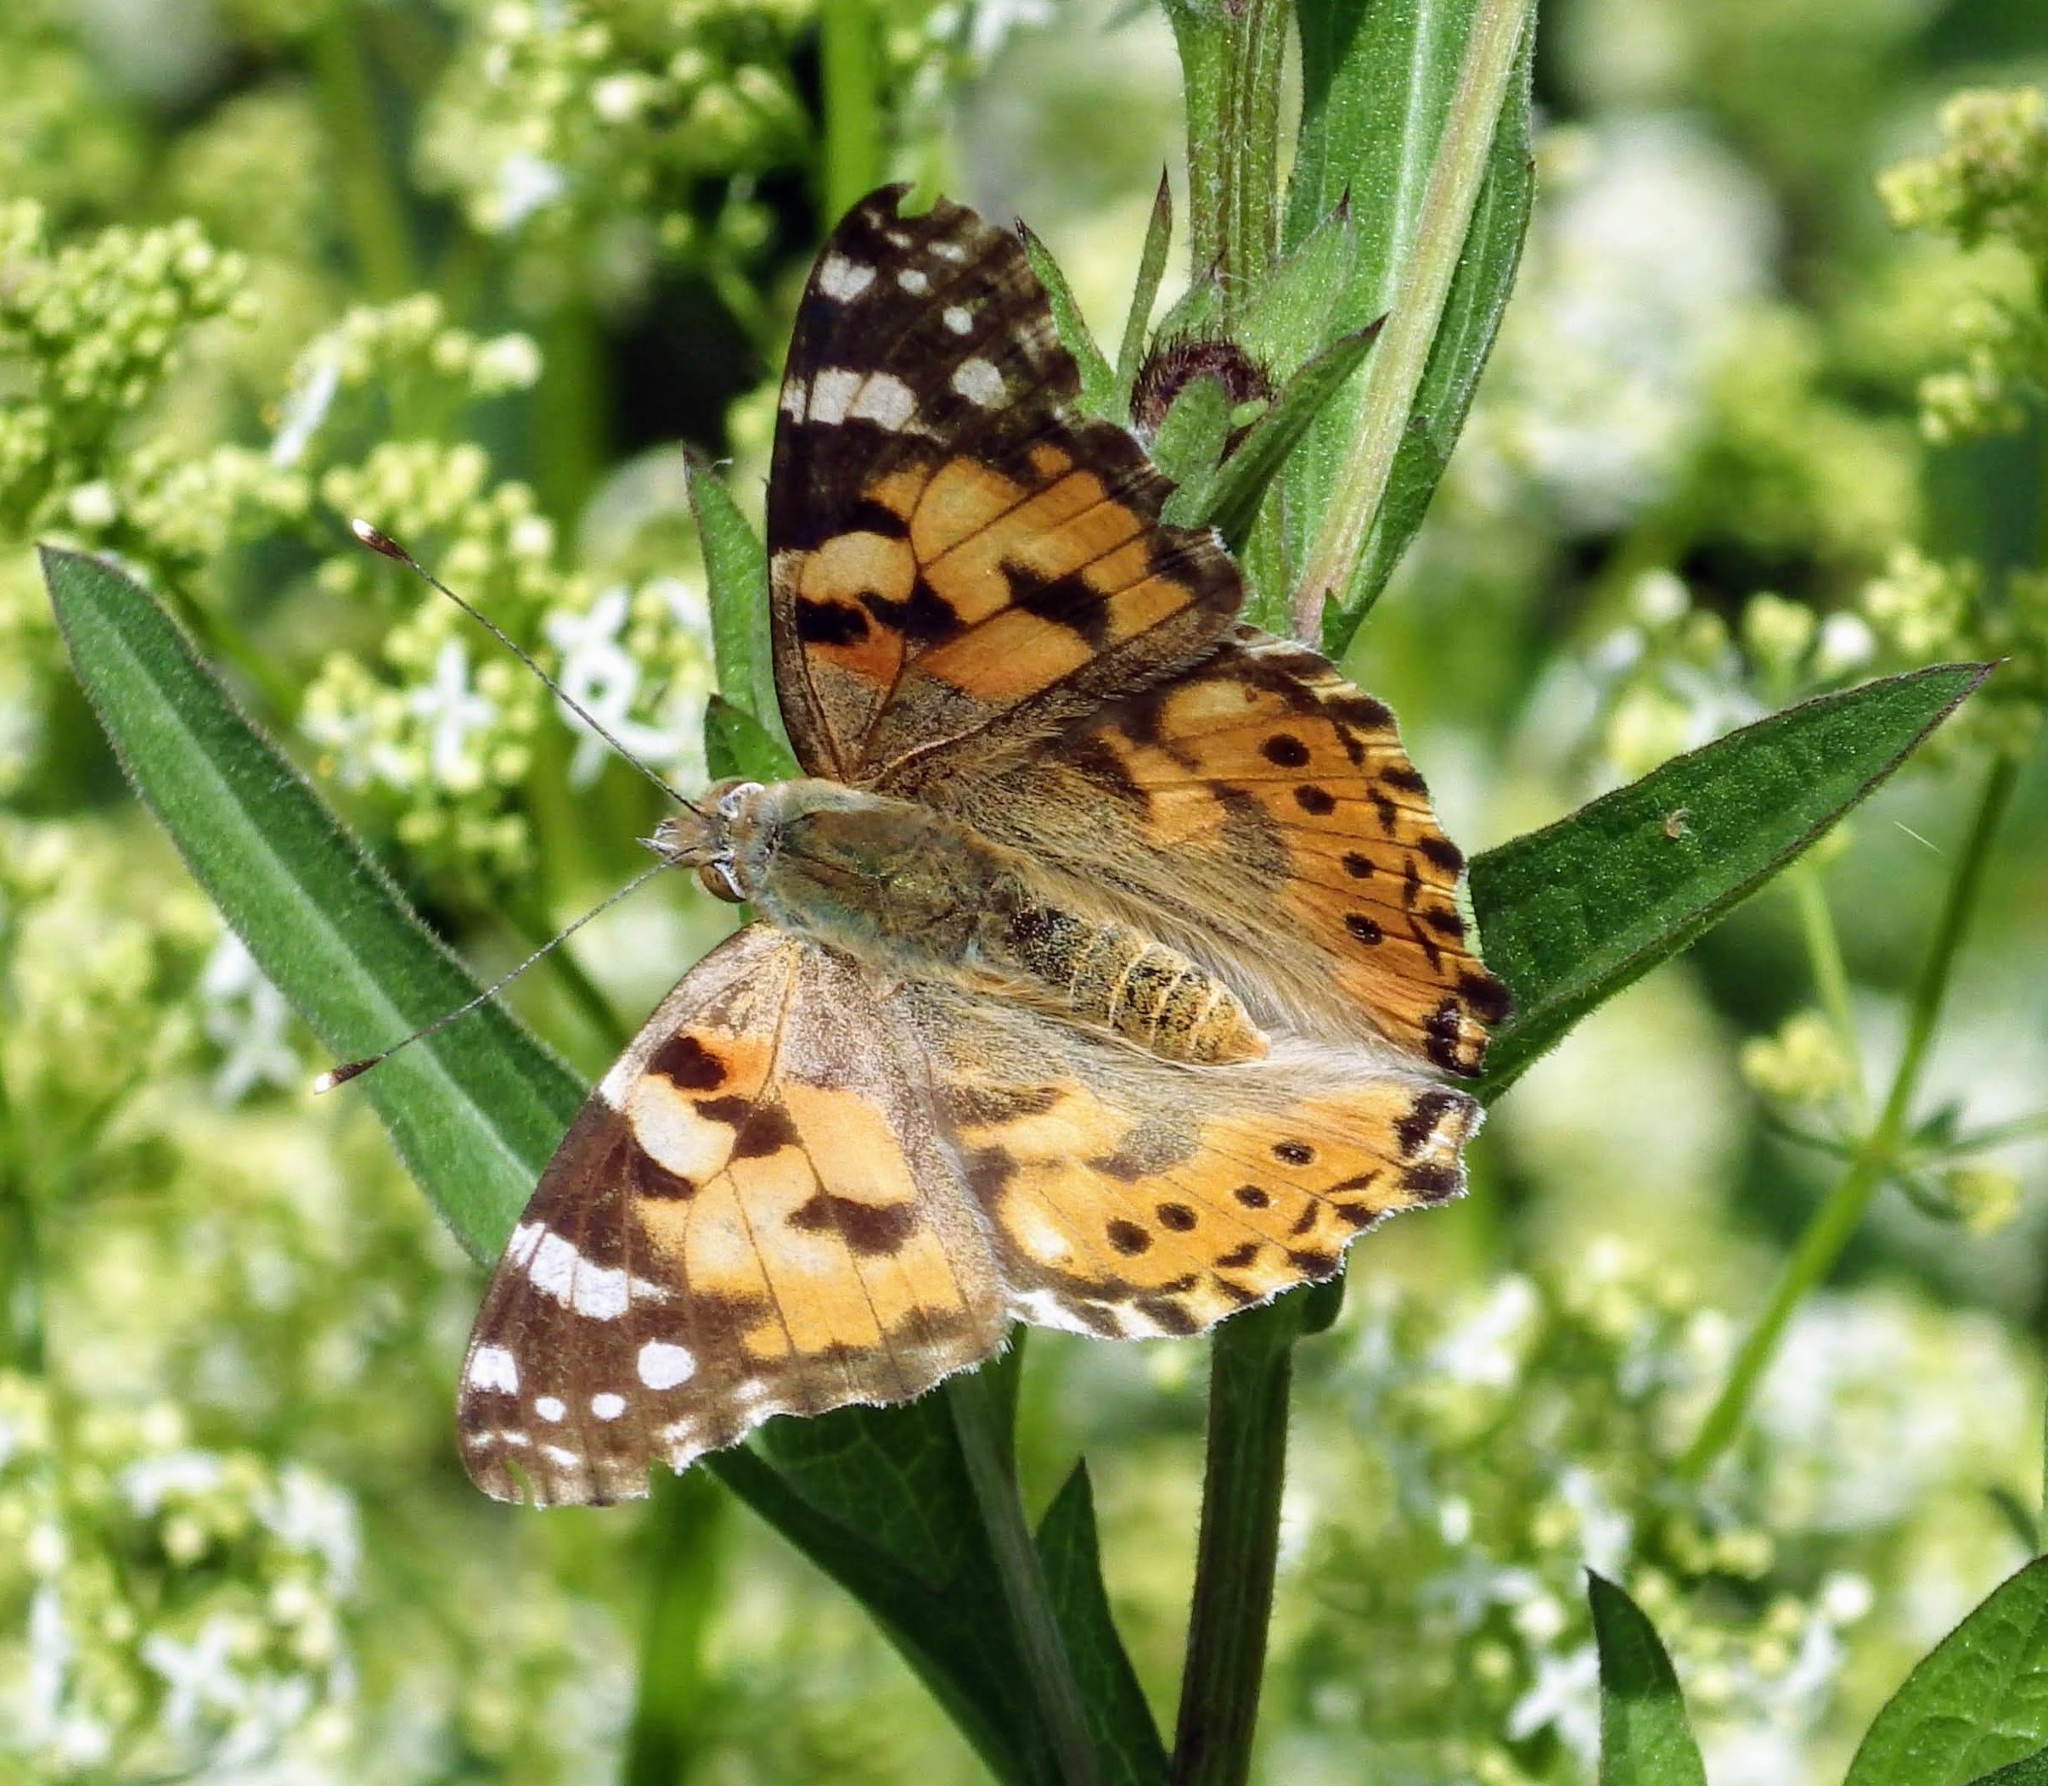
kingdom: Animalia
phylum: Arthropoda
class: Insecta
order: Lepidoptera
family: Nymphalidae
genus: Vanessa
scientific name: Vanessa cardui
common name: Painted lady
